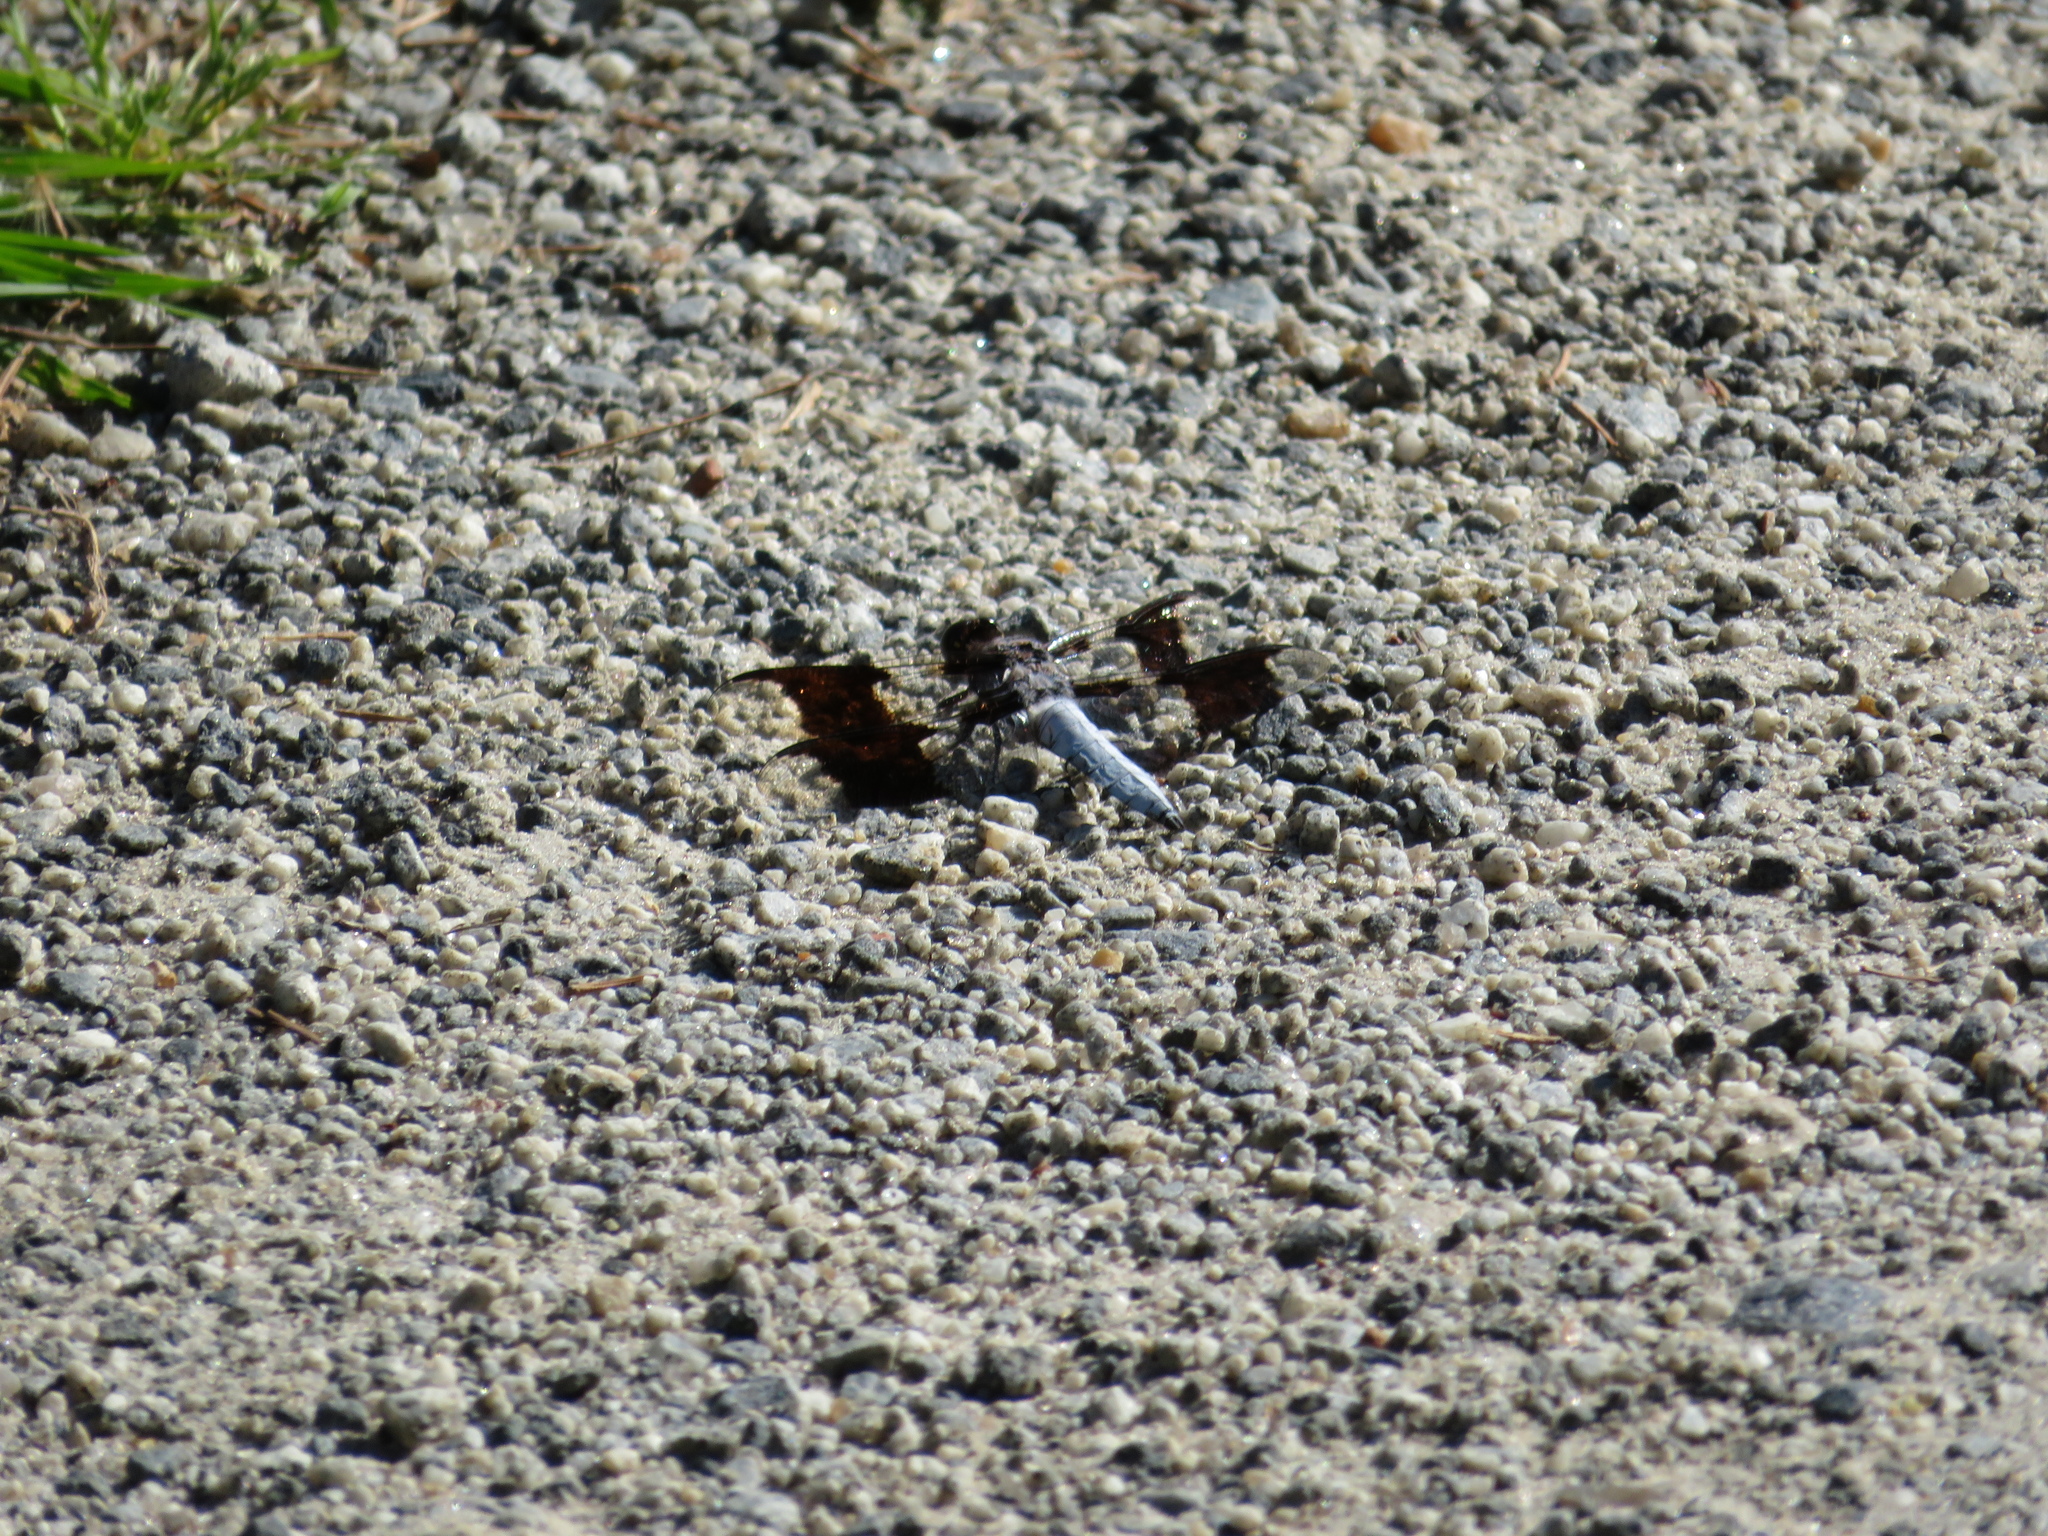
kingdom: Animalia
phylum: Arthropoda
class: Insecta
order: Odonata
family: Libellulidae
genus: Plathemis
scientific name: Plathemis lydia
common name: Common whitetail
